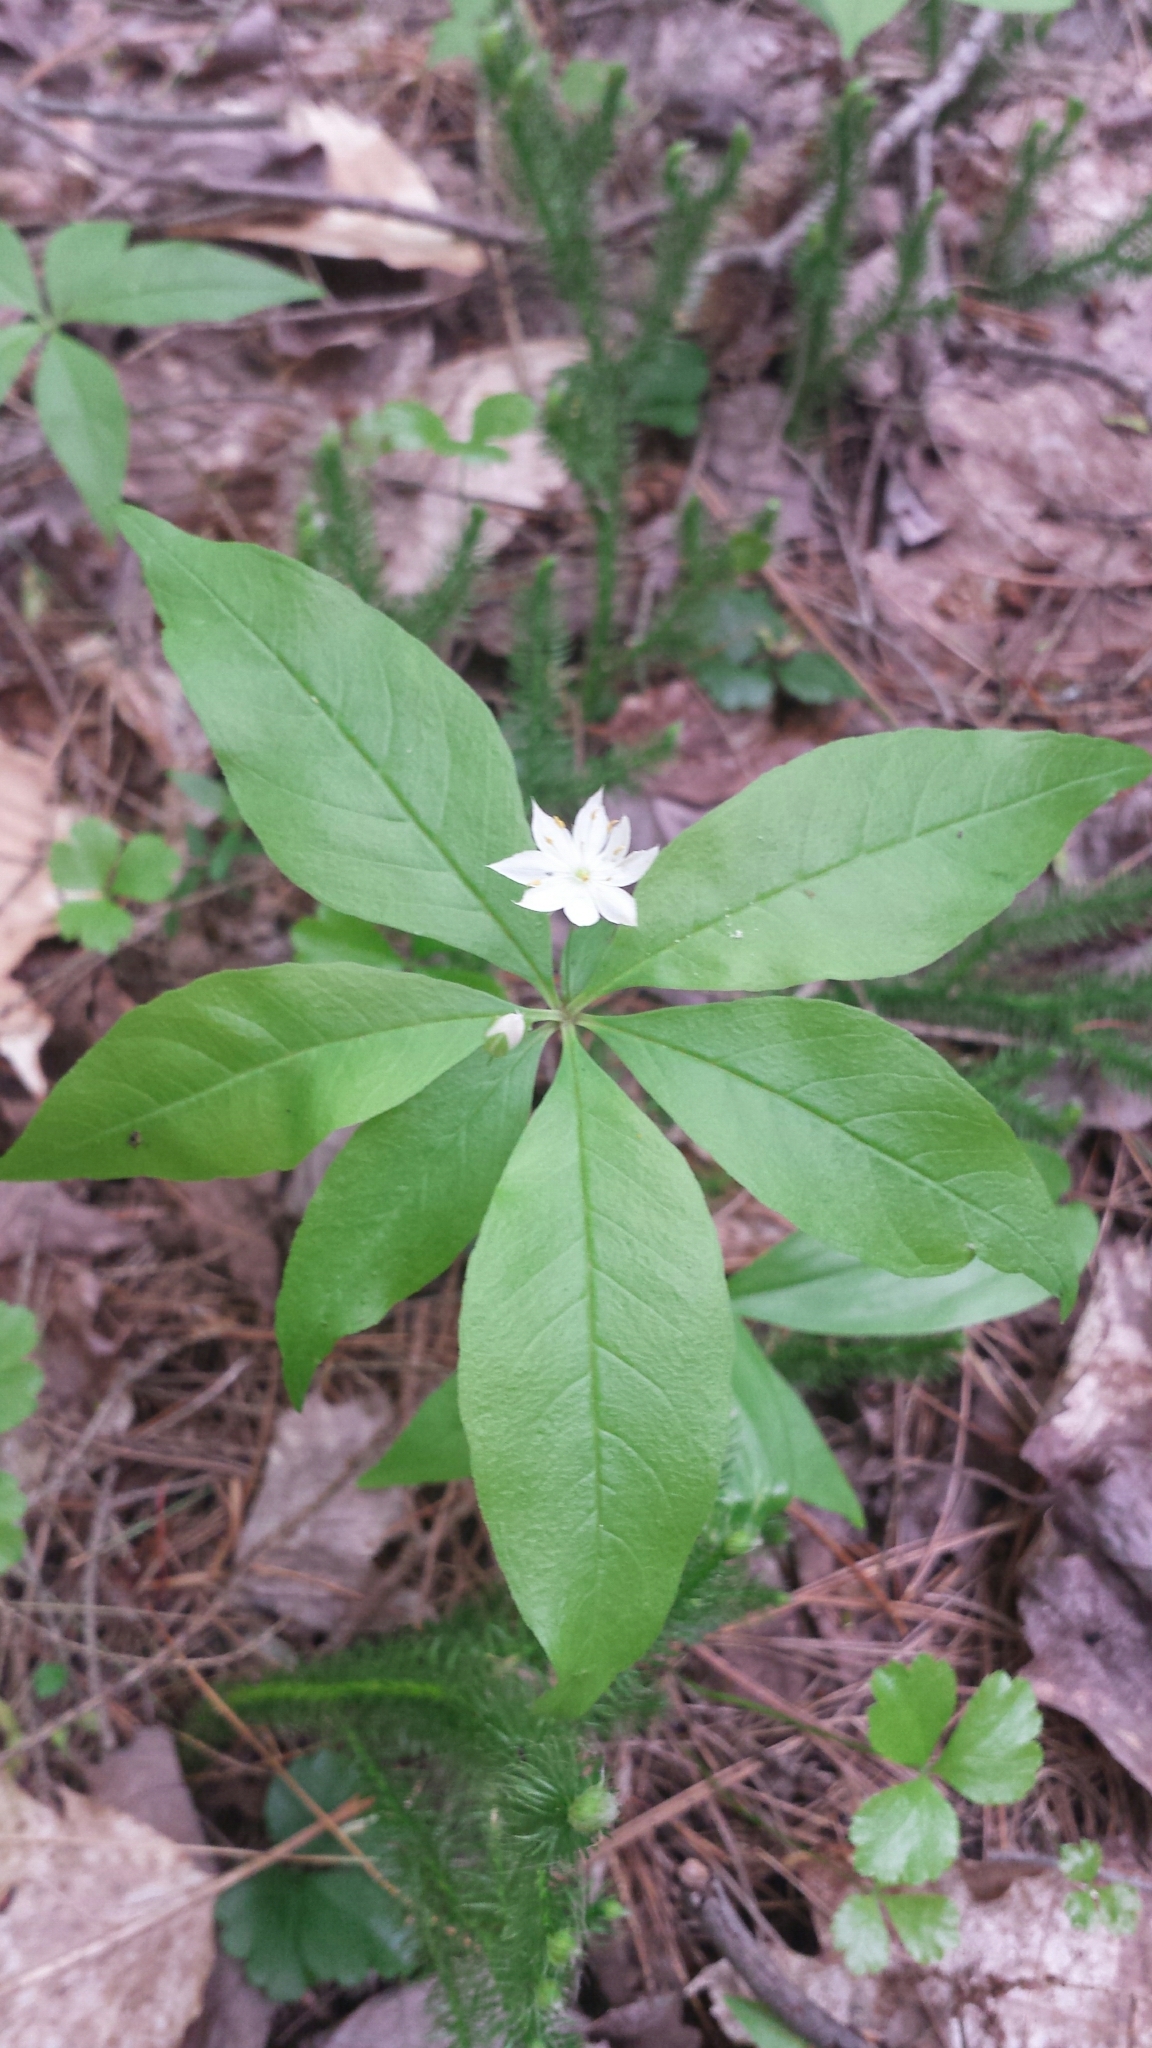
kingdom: Plantae
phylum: Tracheophyta
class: Magnoliopsida
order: Ericales
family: Primulaceae
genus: Lysimachia
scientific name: Lysimachia borealis
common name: American starflower
